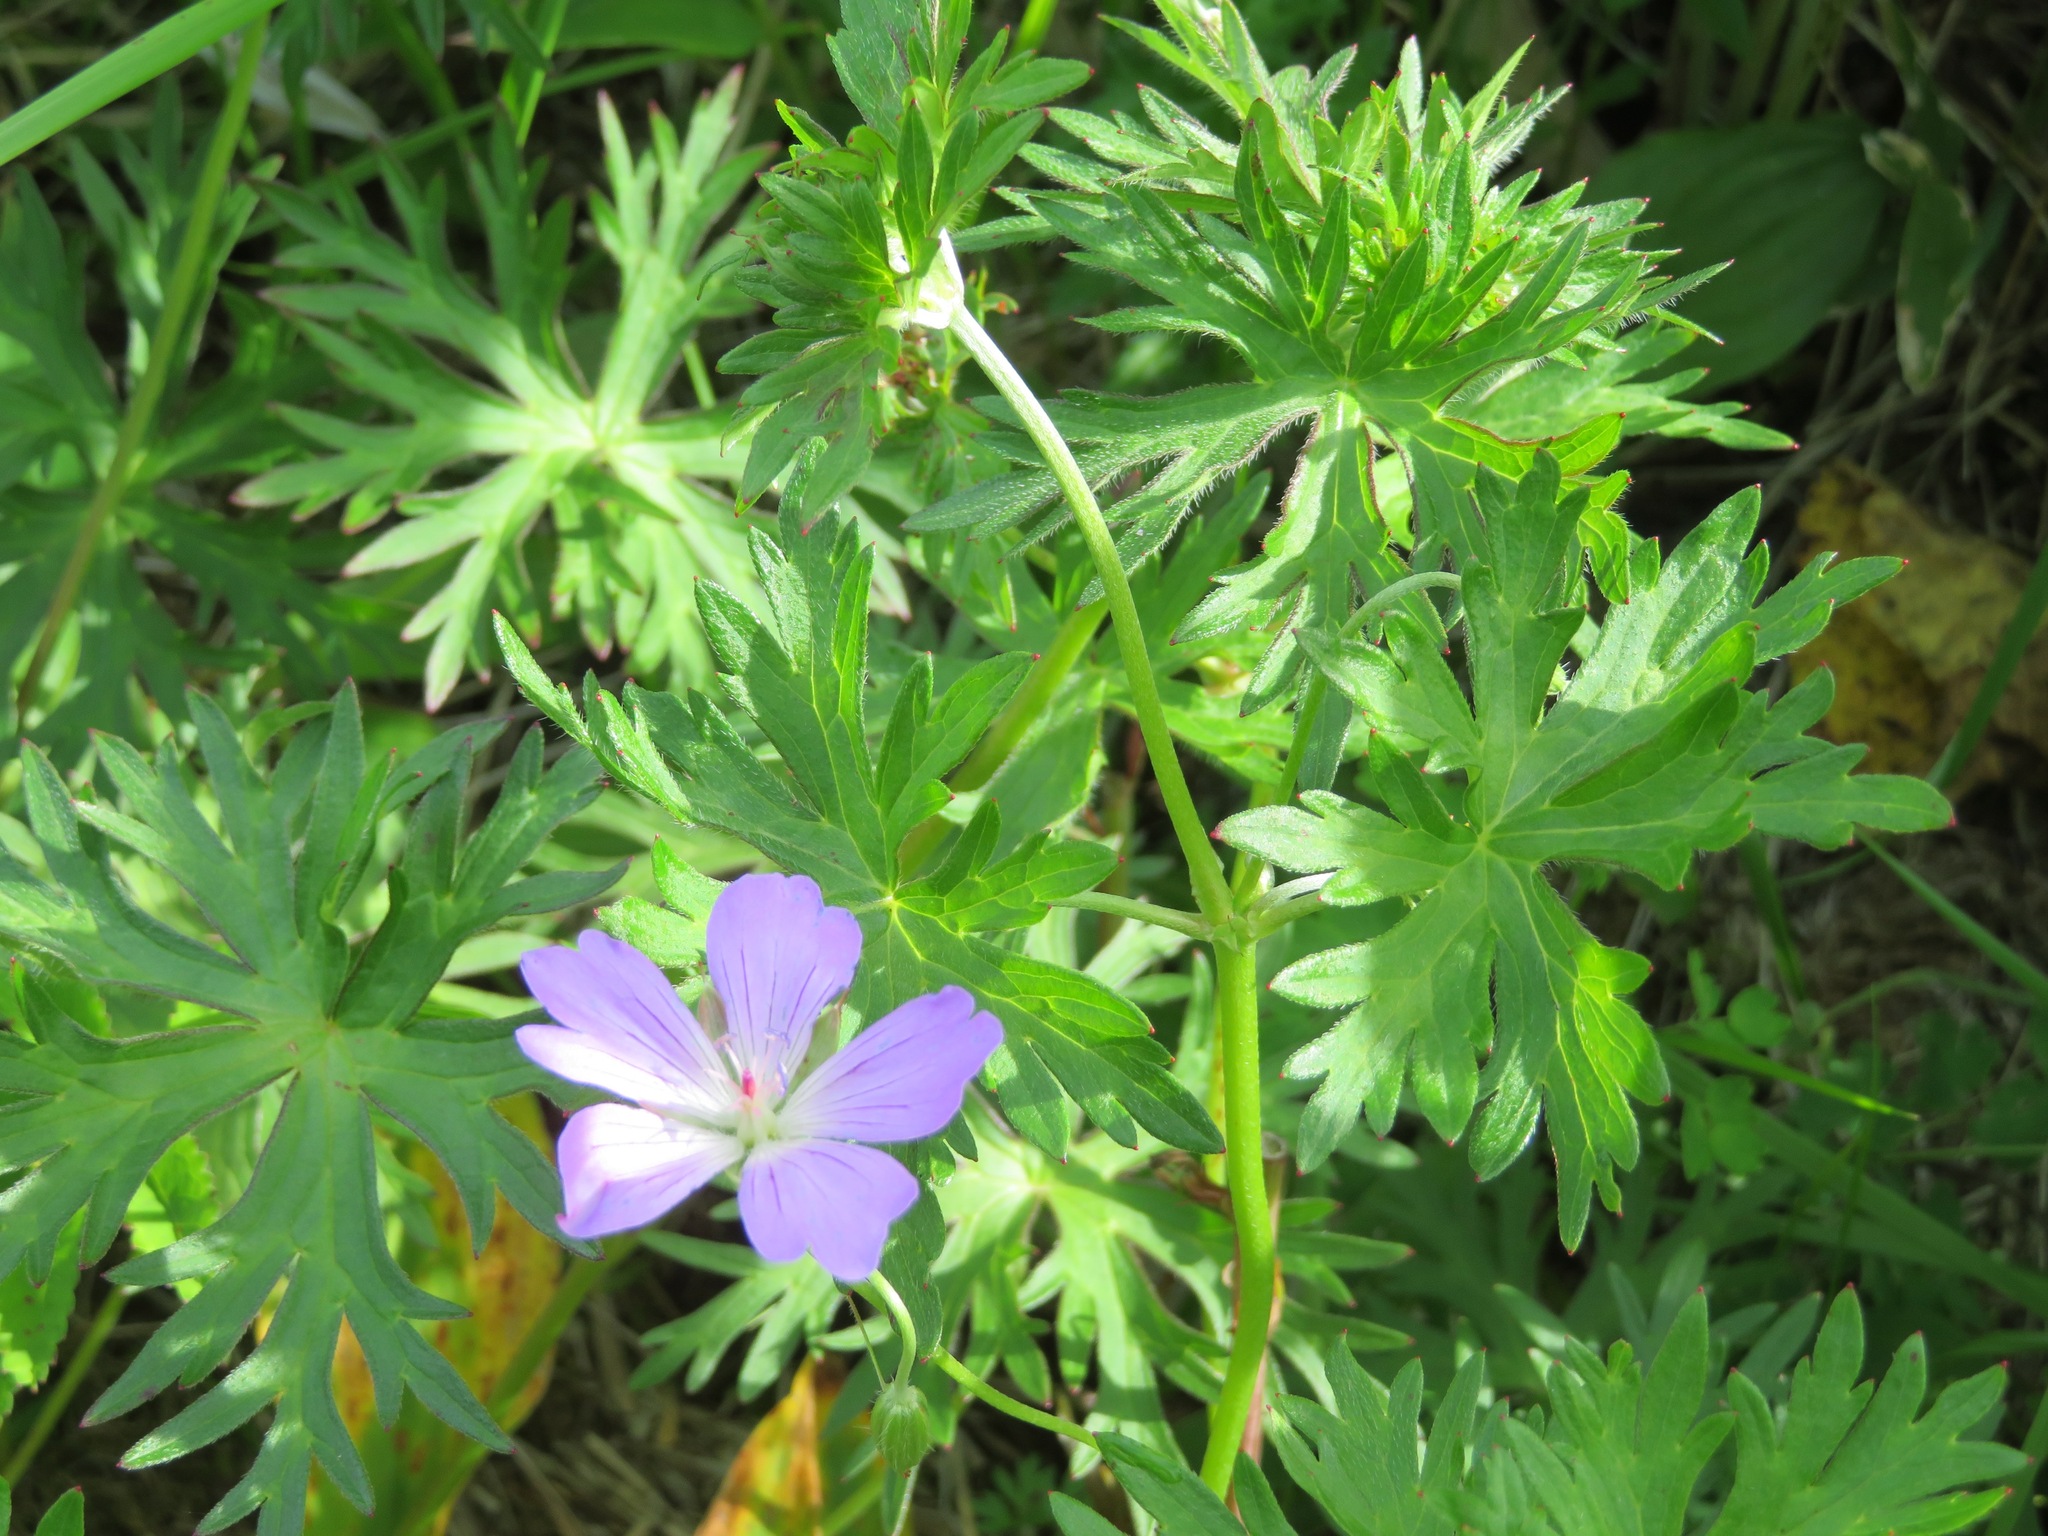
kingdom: Plantae
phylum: Tracheophyta
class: Magnoliopsida
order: Geraniales
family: Geraniaceae
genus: Geranium
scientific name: Geranium yesoense
